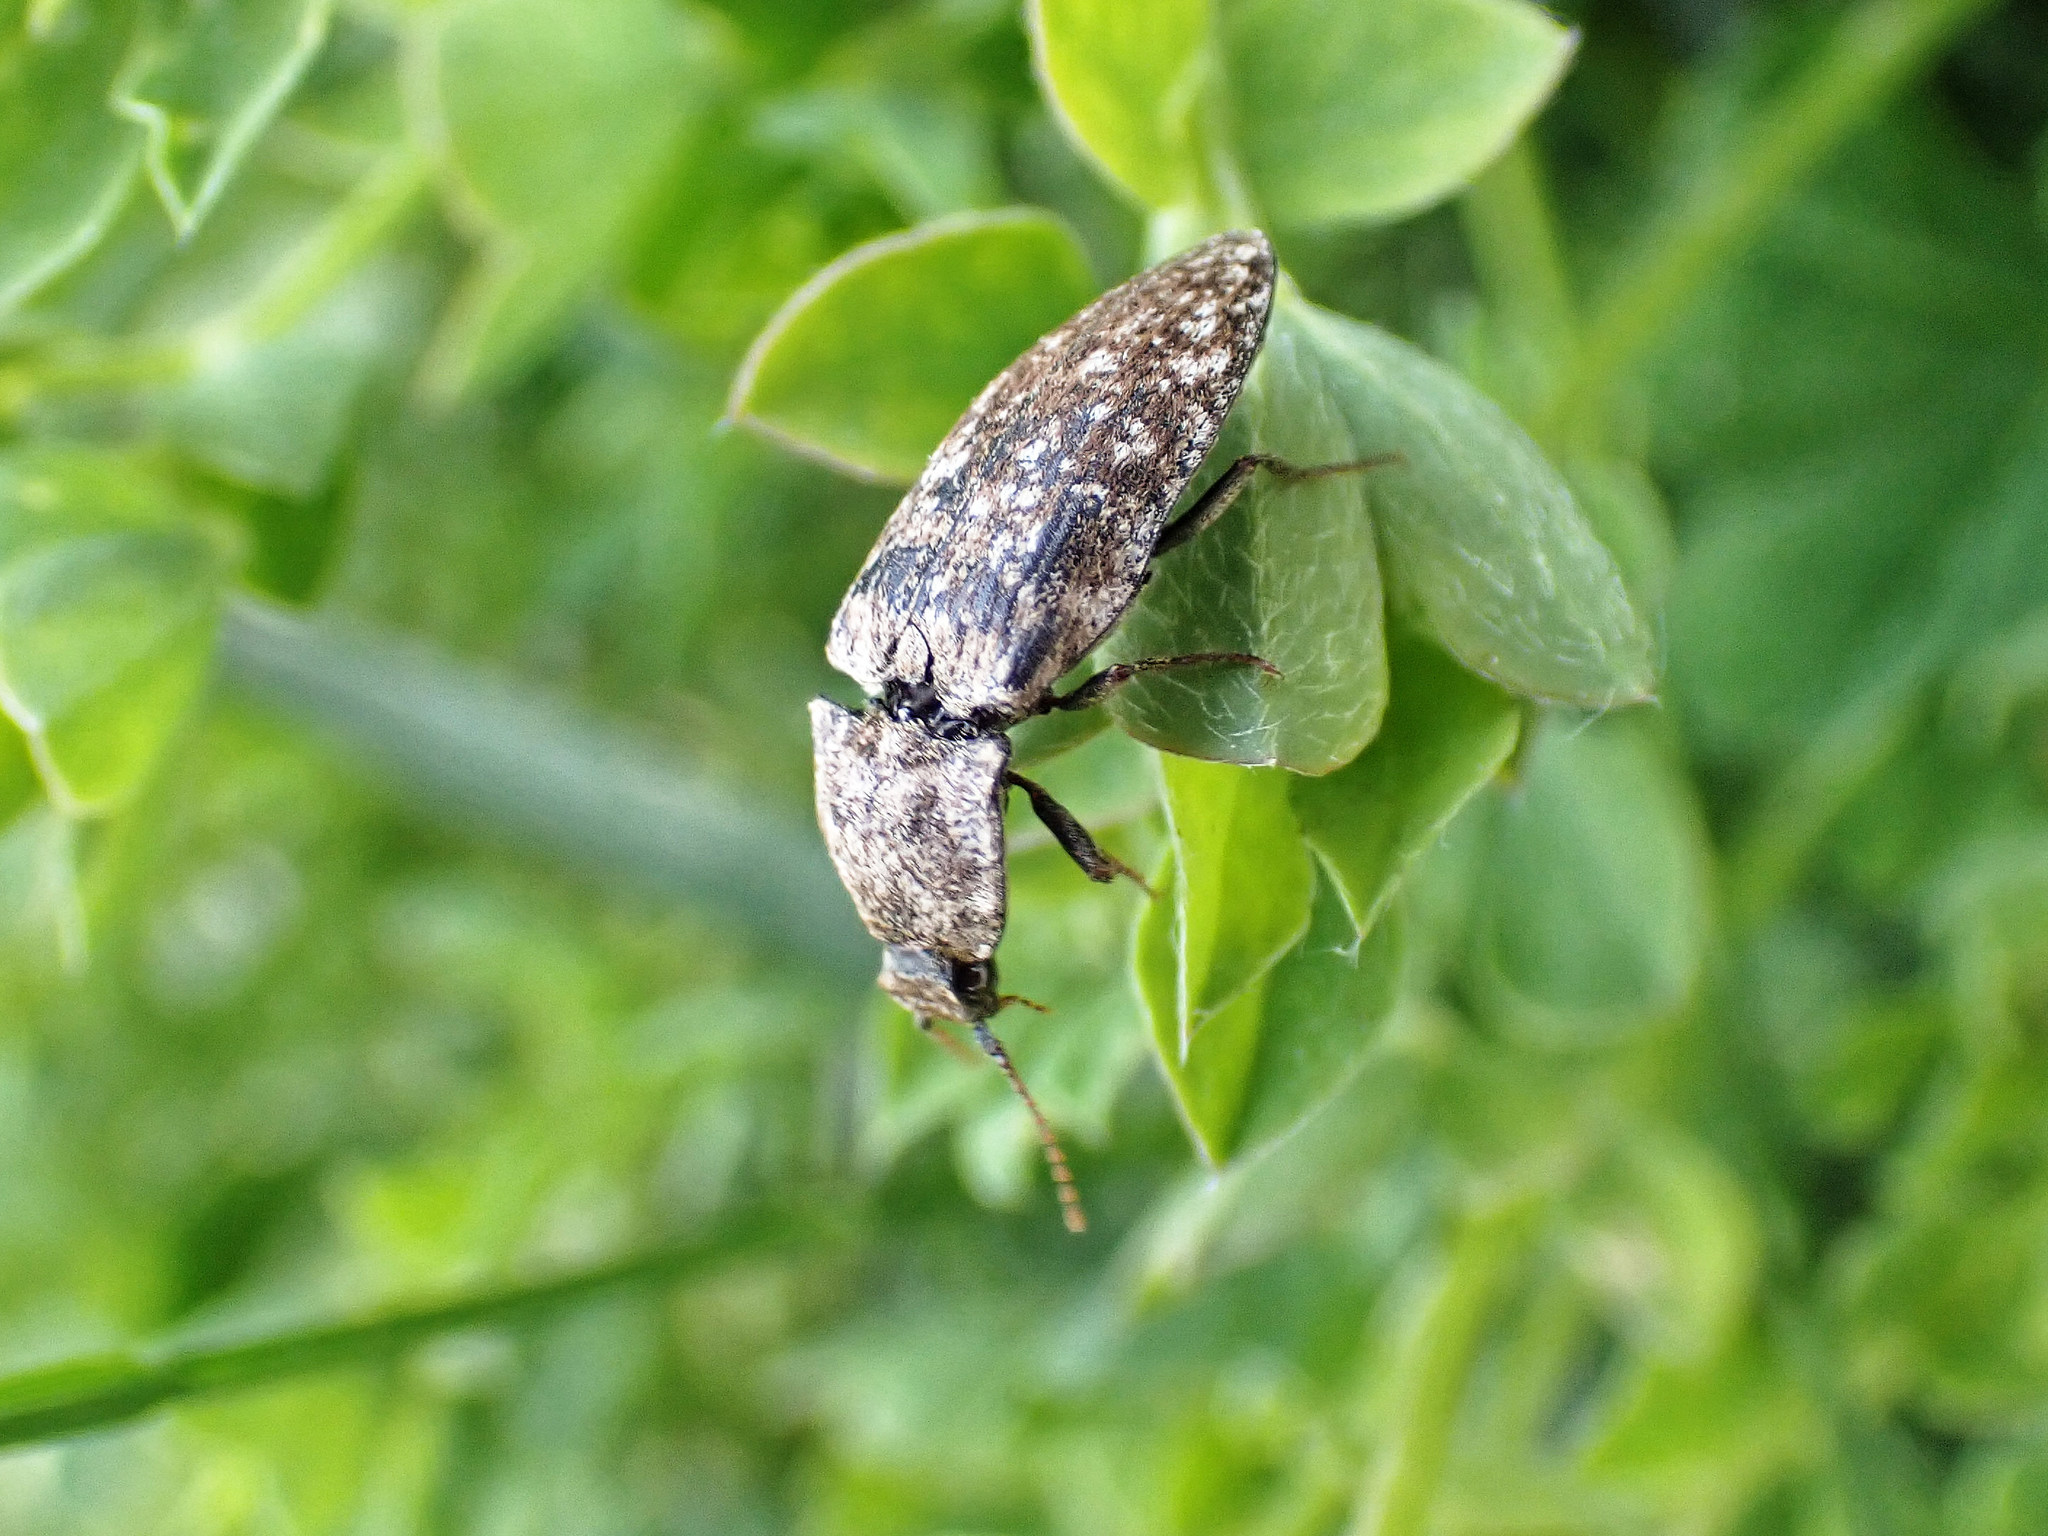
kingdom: Animalia
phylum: Arthropoda
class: Insecta
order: Coleoptera
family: Elateridae
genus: Agrypnus
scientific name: Agrypnus murinus
